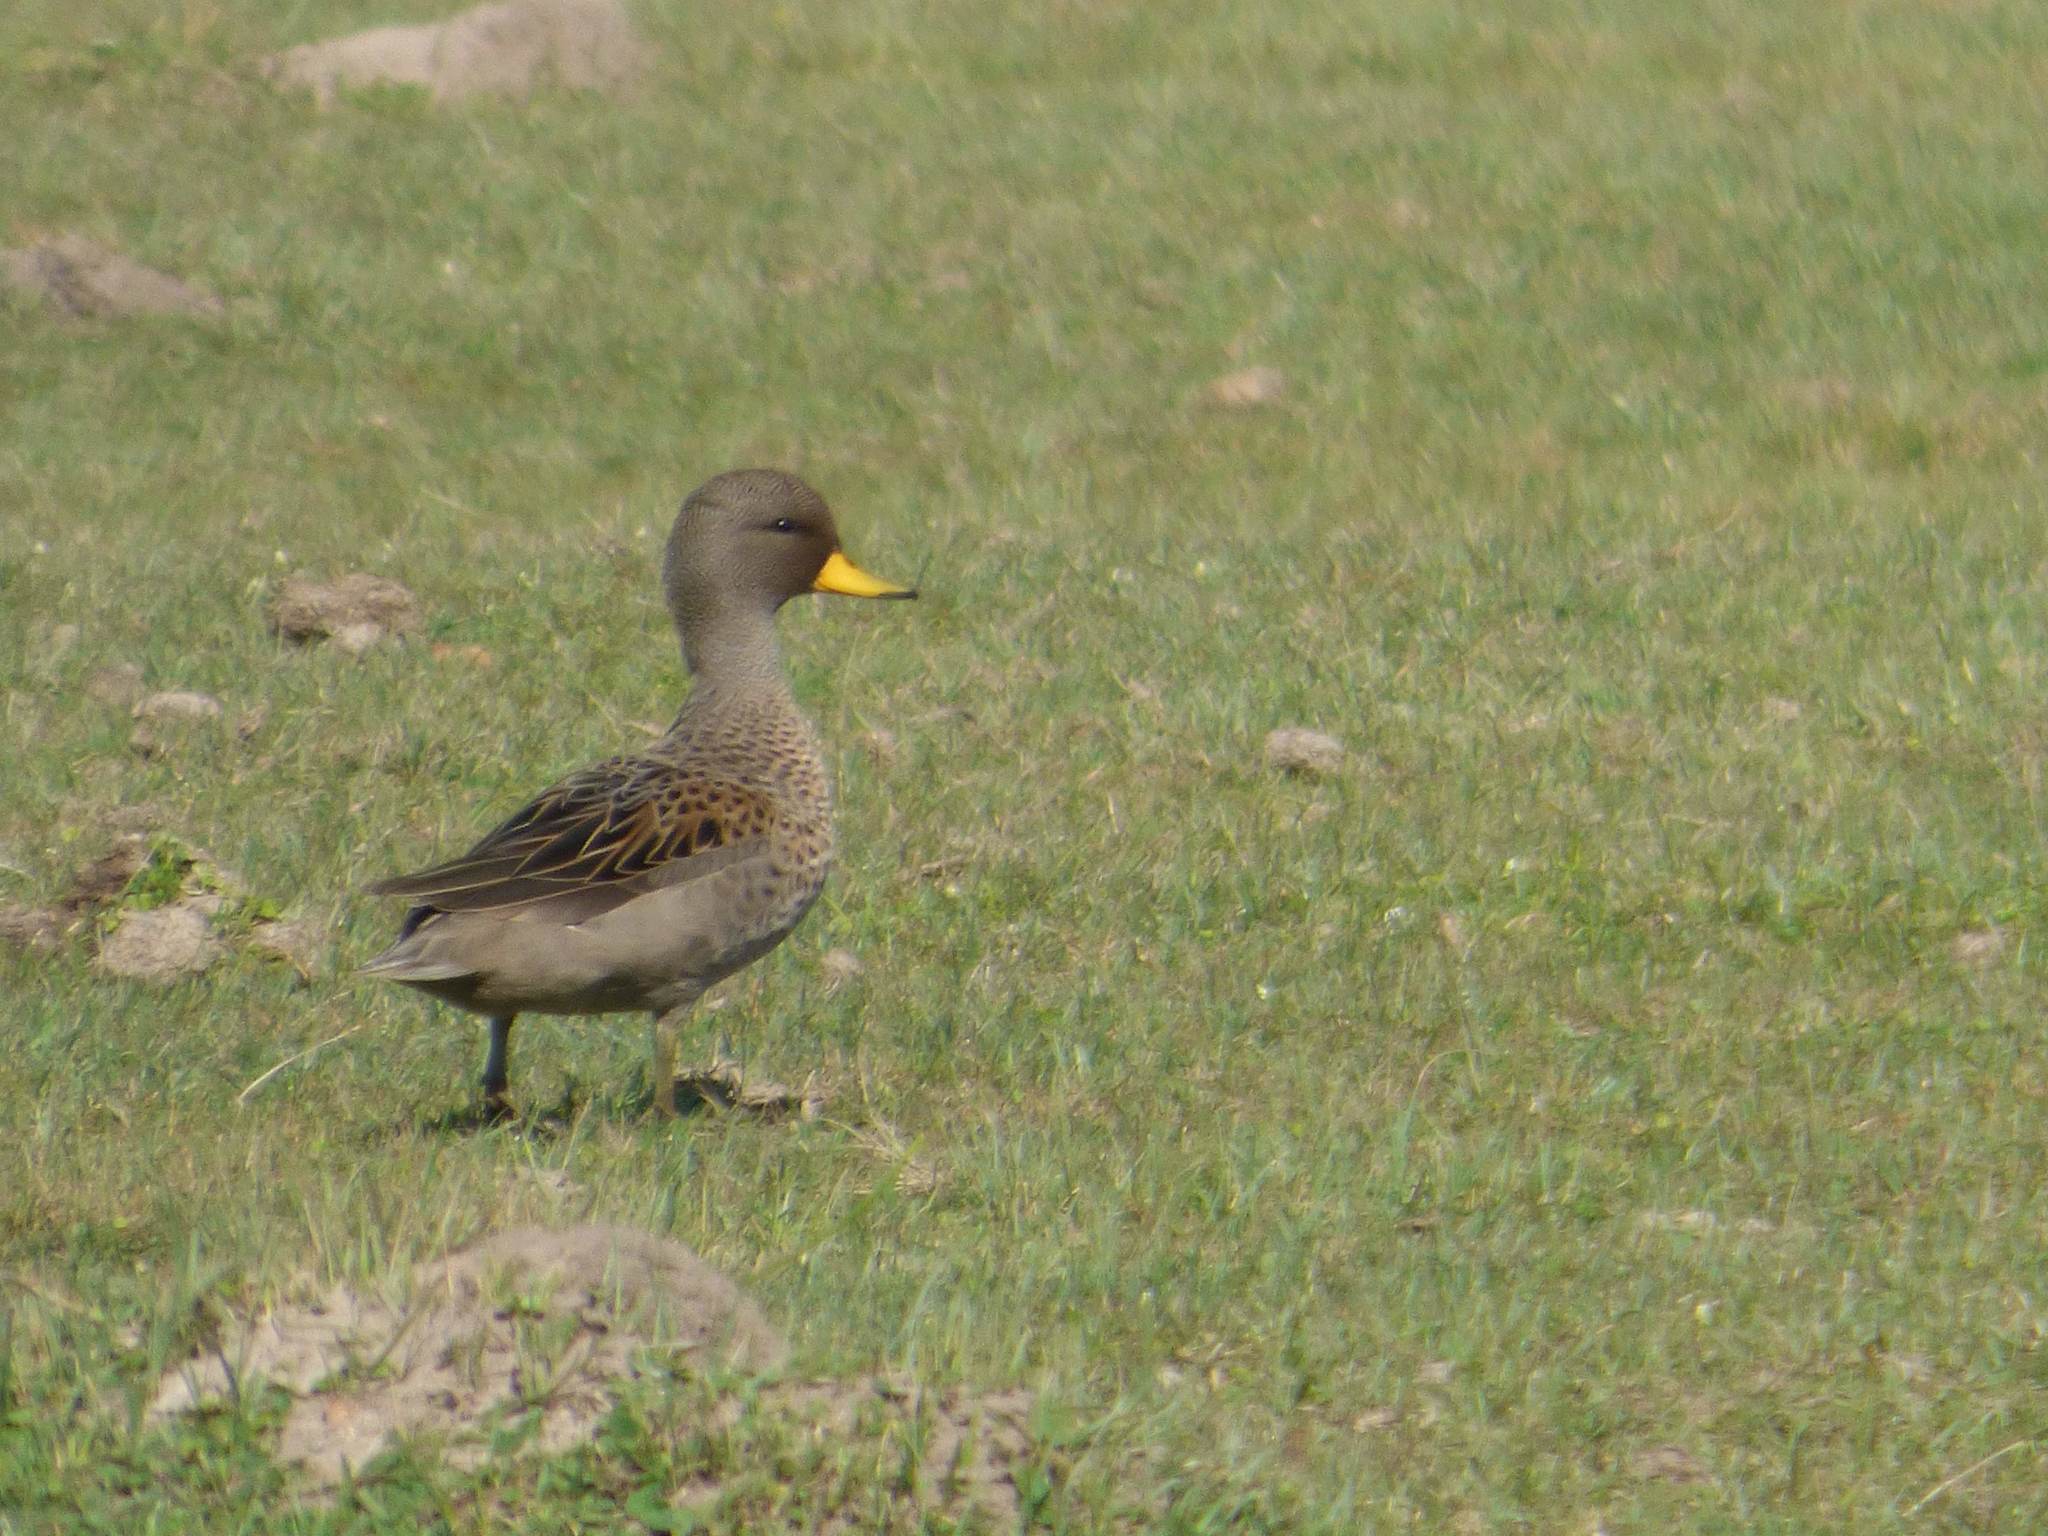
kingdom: Animalia
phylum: Chordata
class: Aves
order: Anseriformes
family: Anatidae
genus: Anas
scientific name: Anas flavirostris
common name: Yellow-billed teal
